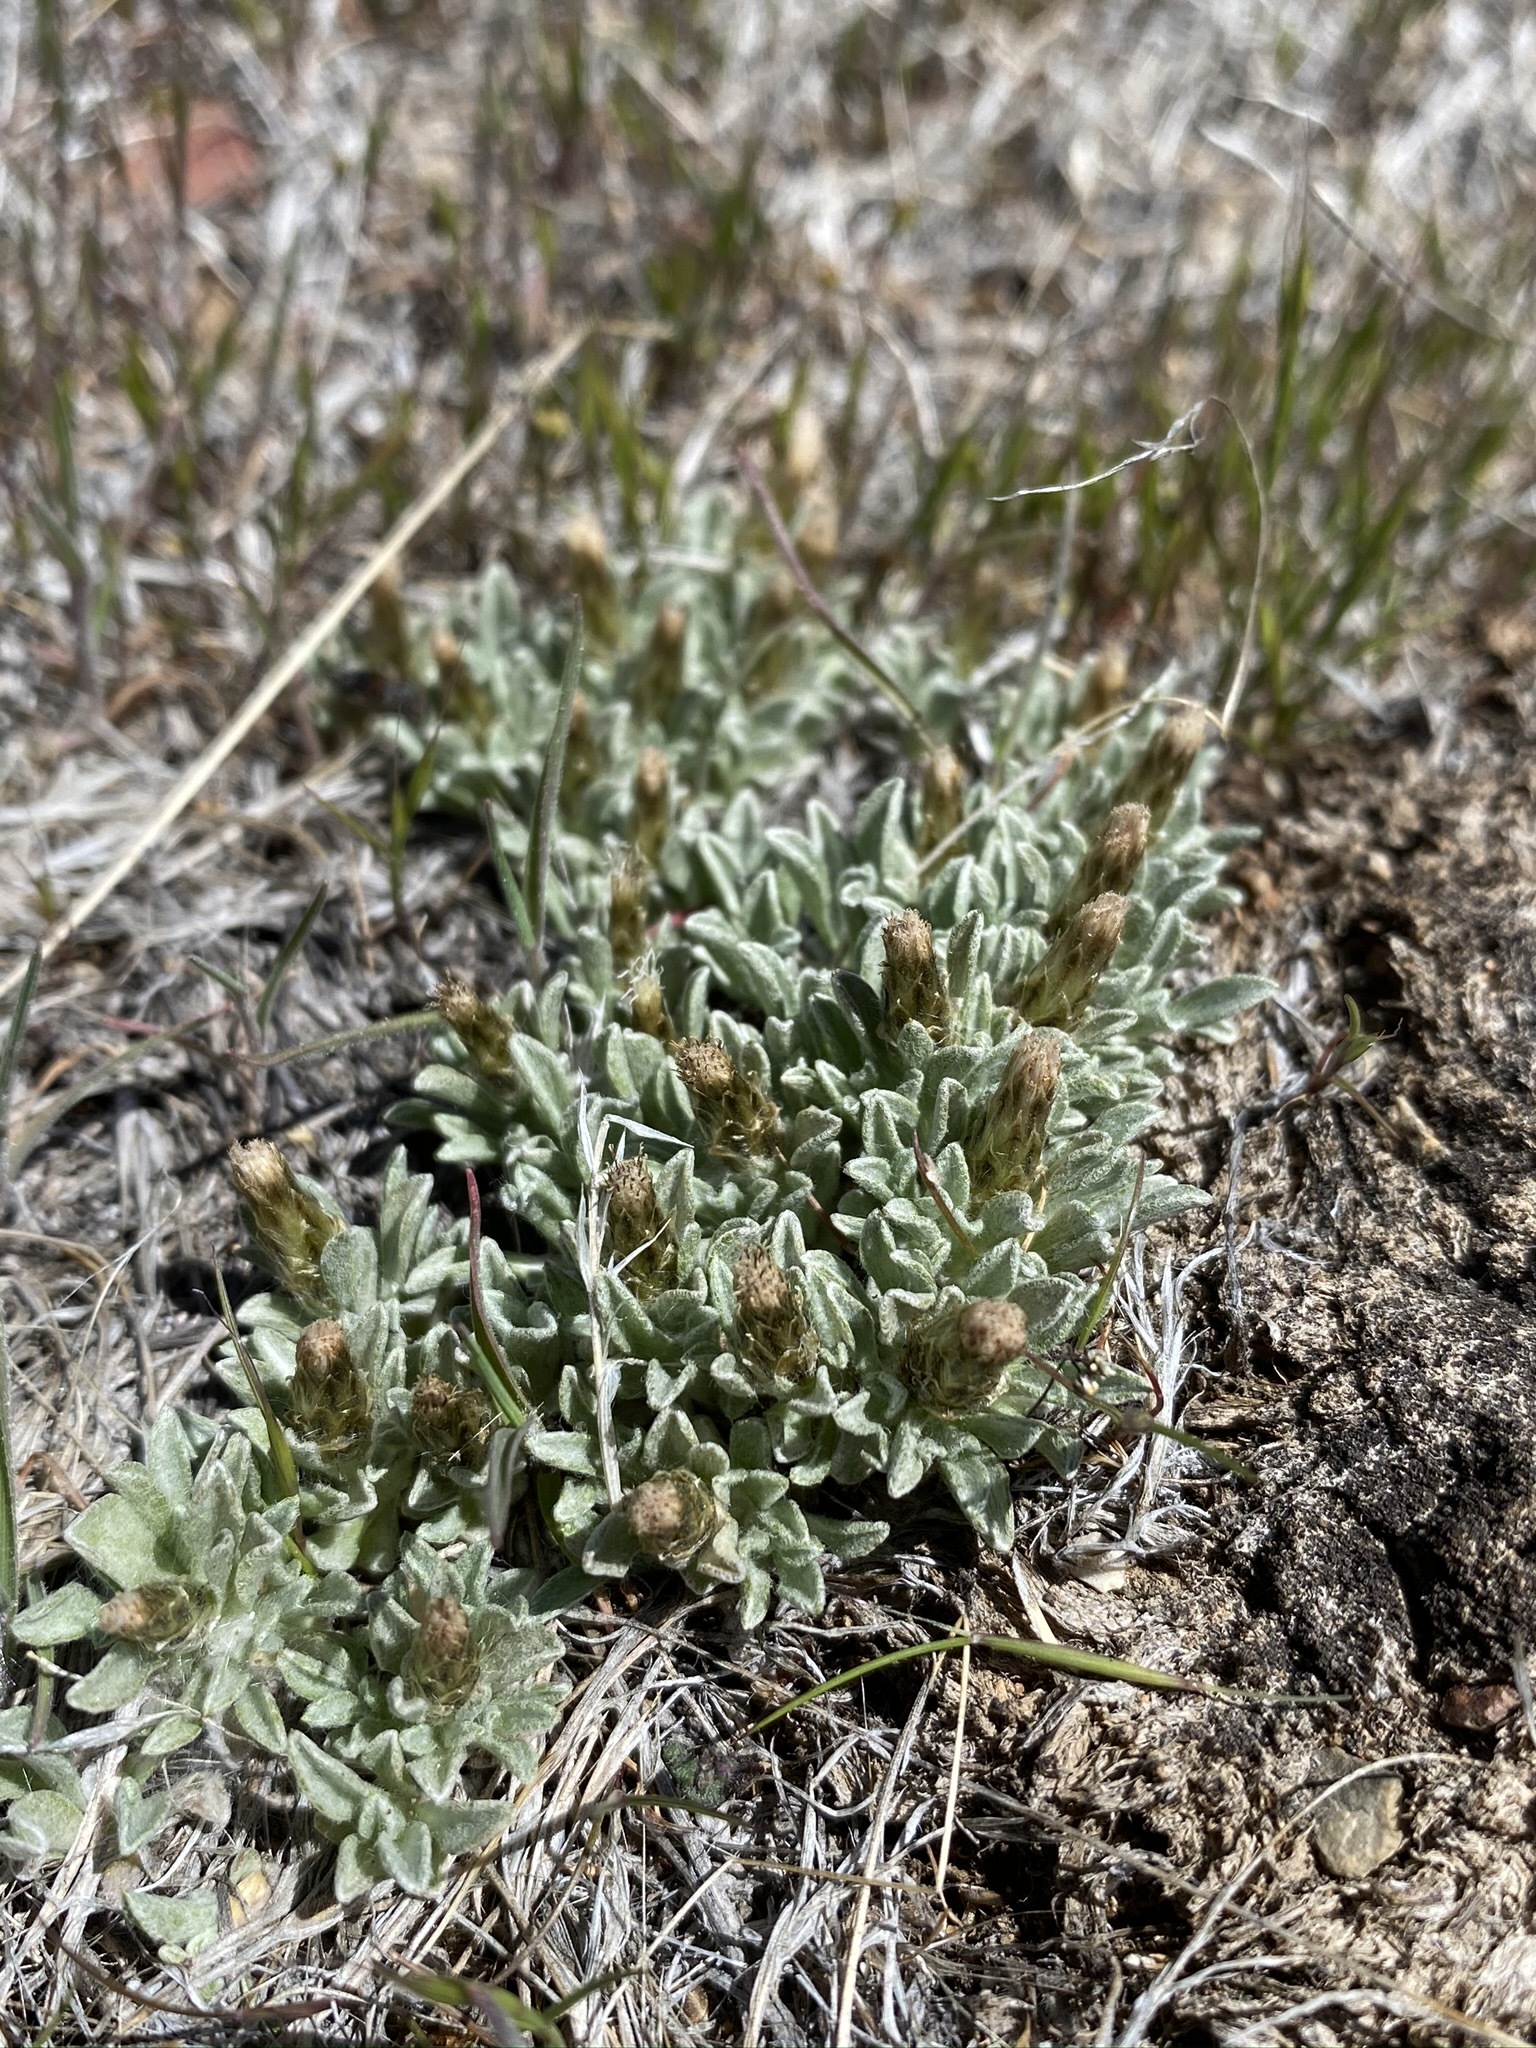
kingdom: Plantae
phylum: Tracheophyta
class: Magnoliopsida
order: Asterales
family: Asteraceae
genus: Antennaria
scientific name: Antennaria dimorpha
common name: Cushion pussytoes
